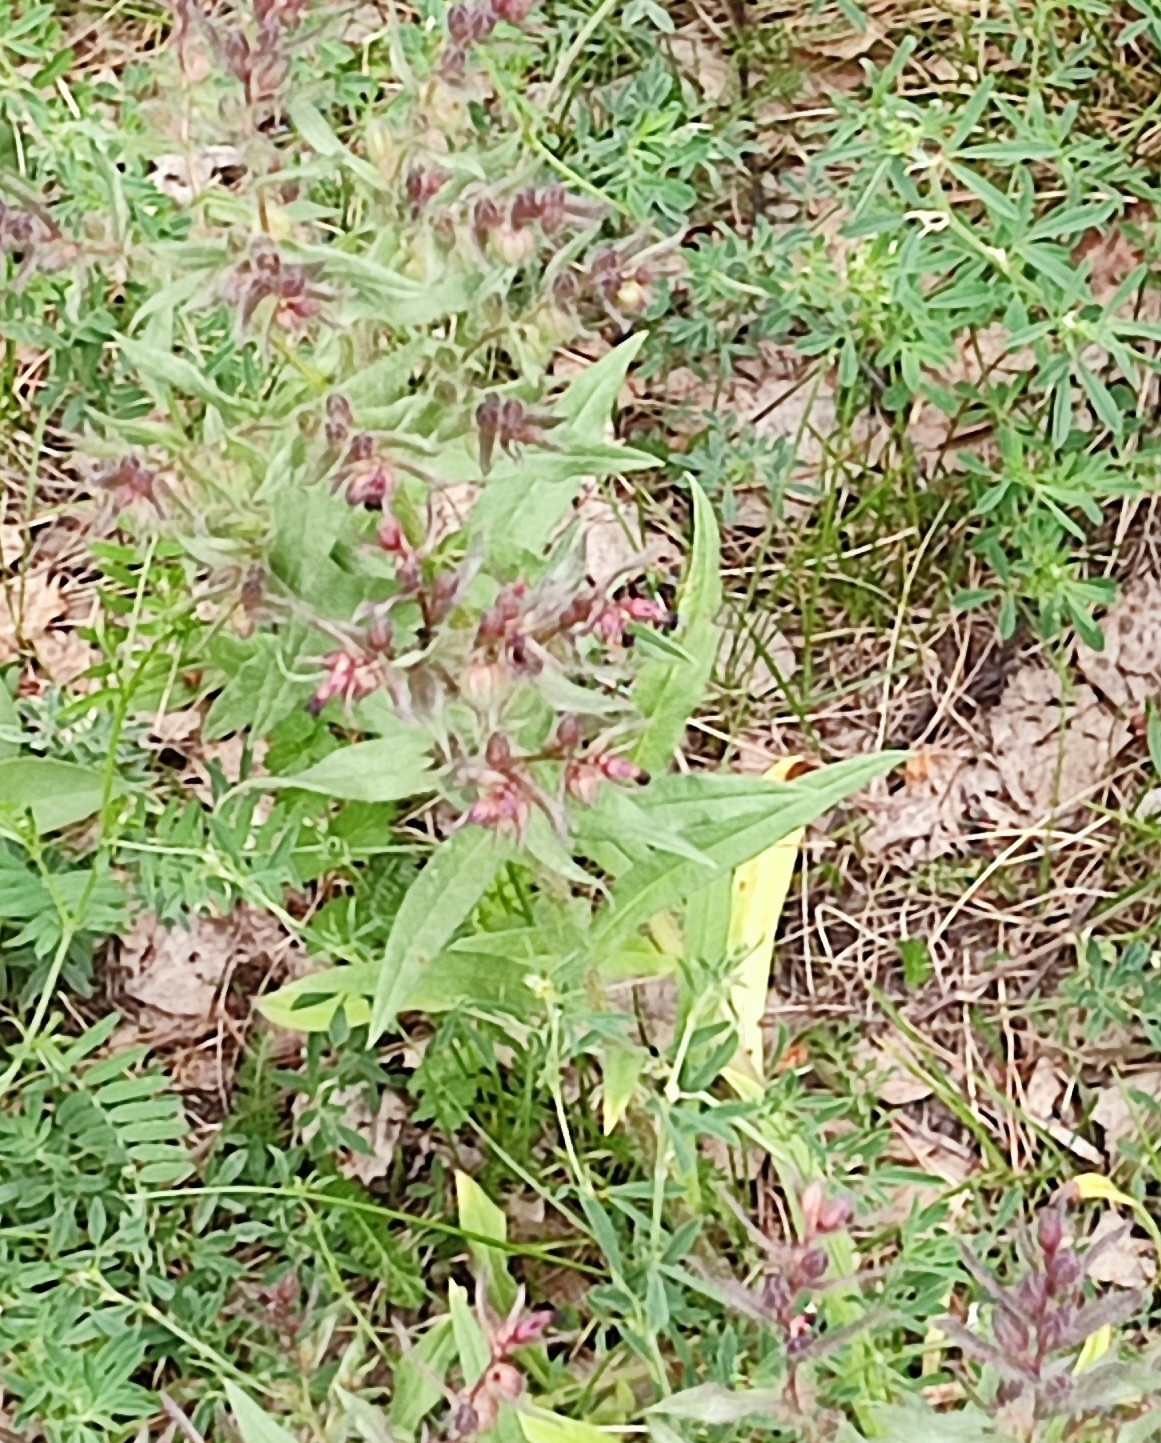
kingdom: Plantae
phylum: Tracheophyta
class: Magnoliopsida
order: Boraginales
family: Boraginaceae
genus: Nonea
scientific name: Nonea pulla
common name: Brown nonea
